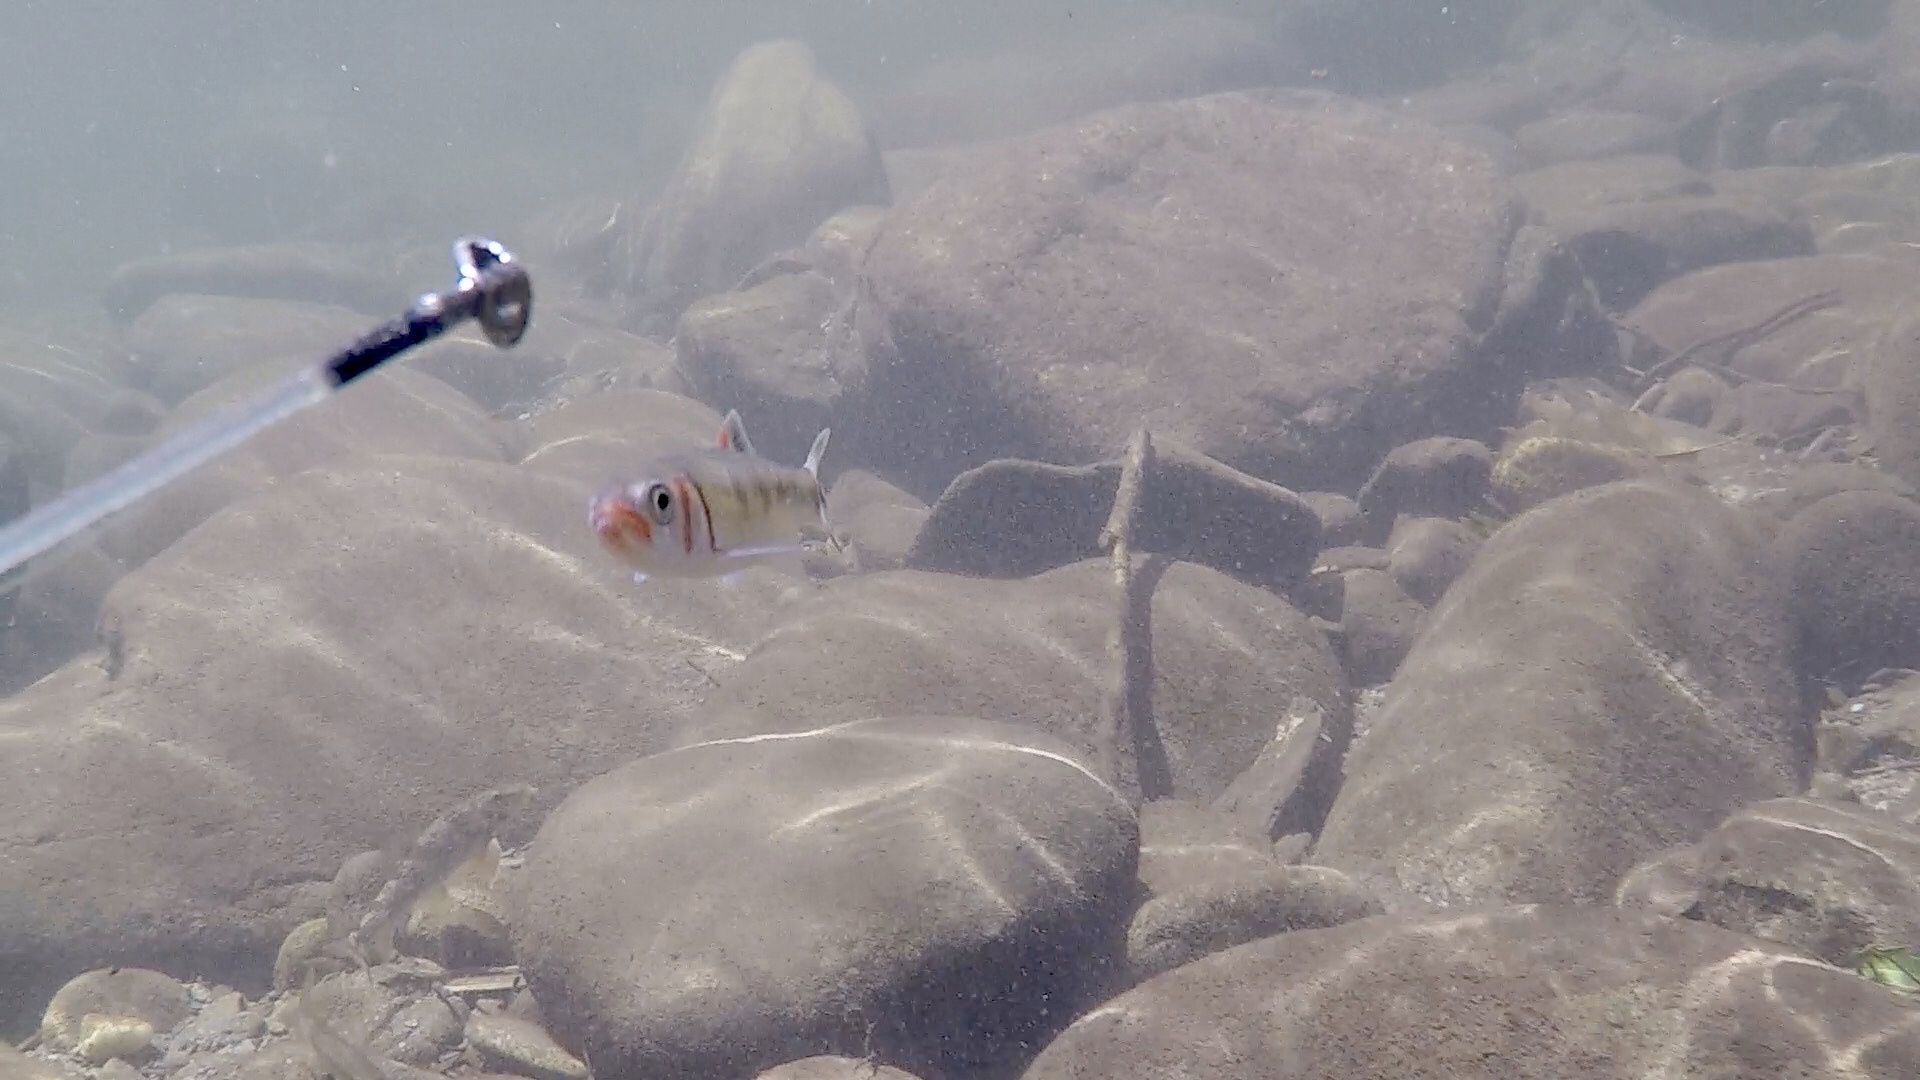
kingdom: Animalia
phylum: Chordata
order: Cypriniformes
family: Cyprinidae
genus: Luxilus
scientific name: Luxilus
